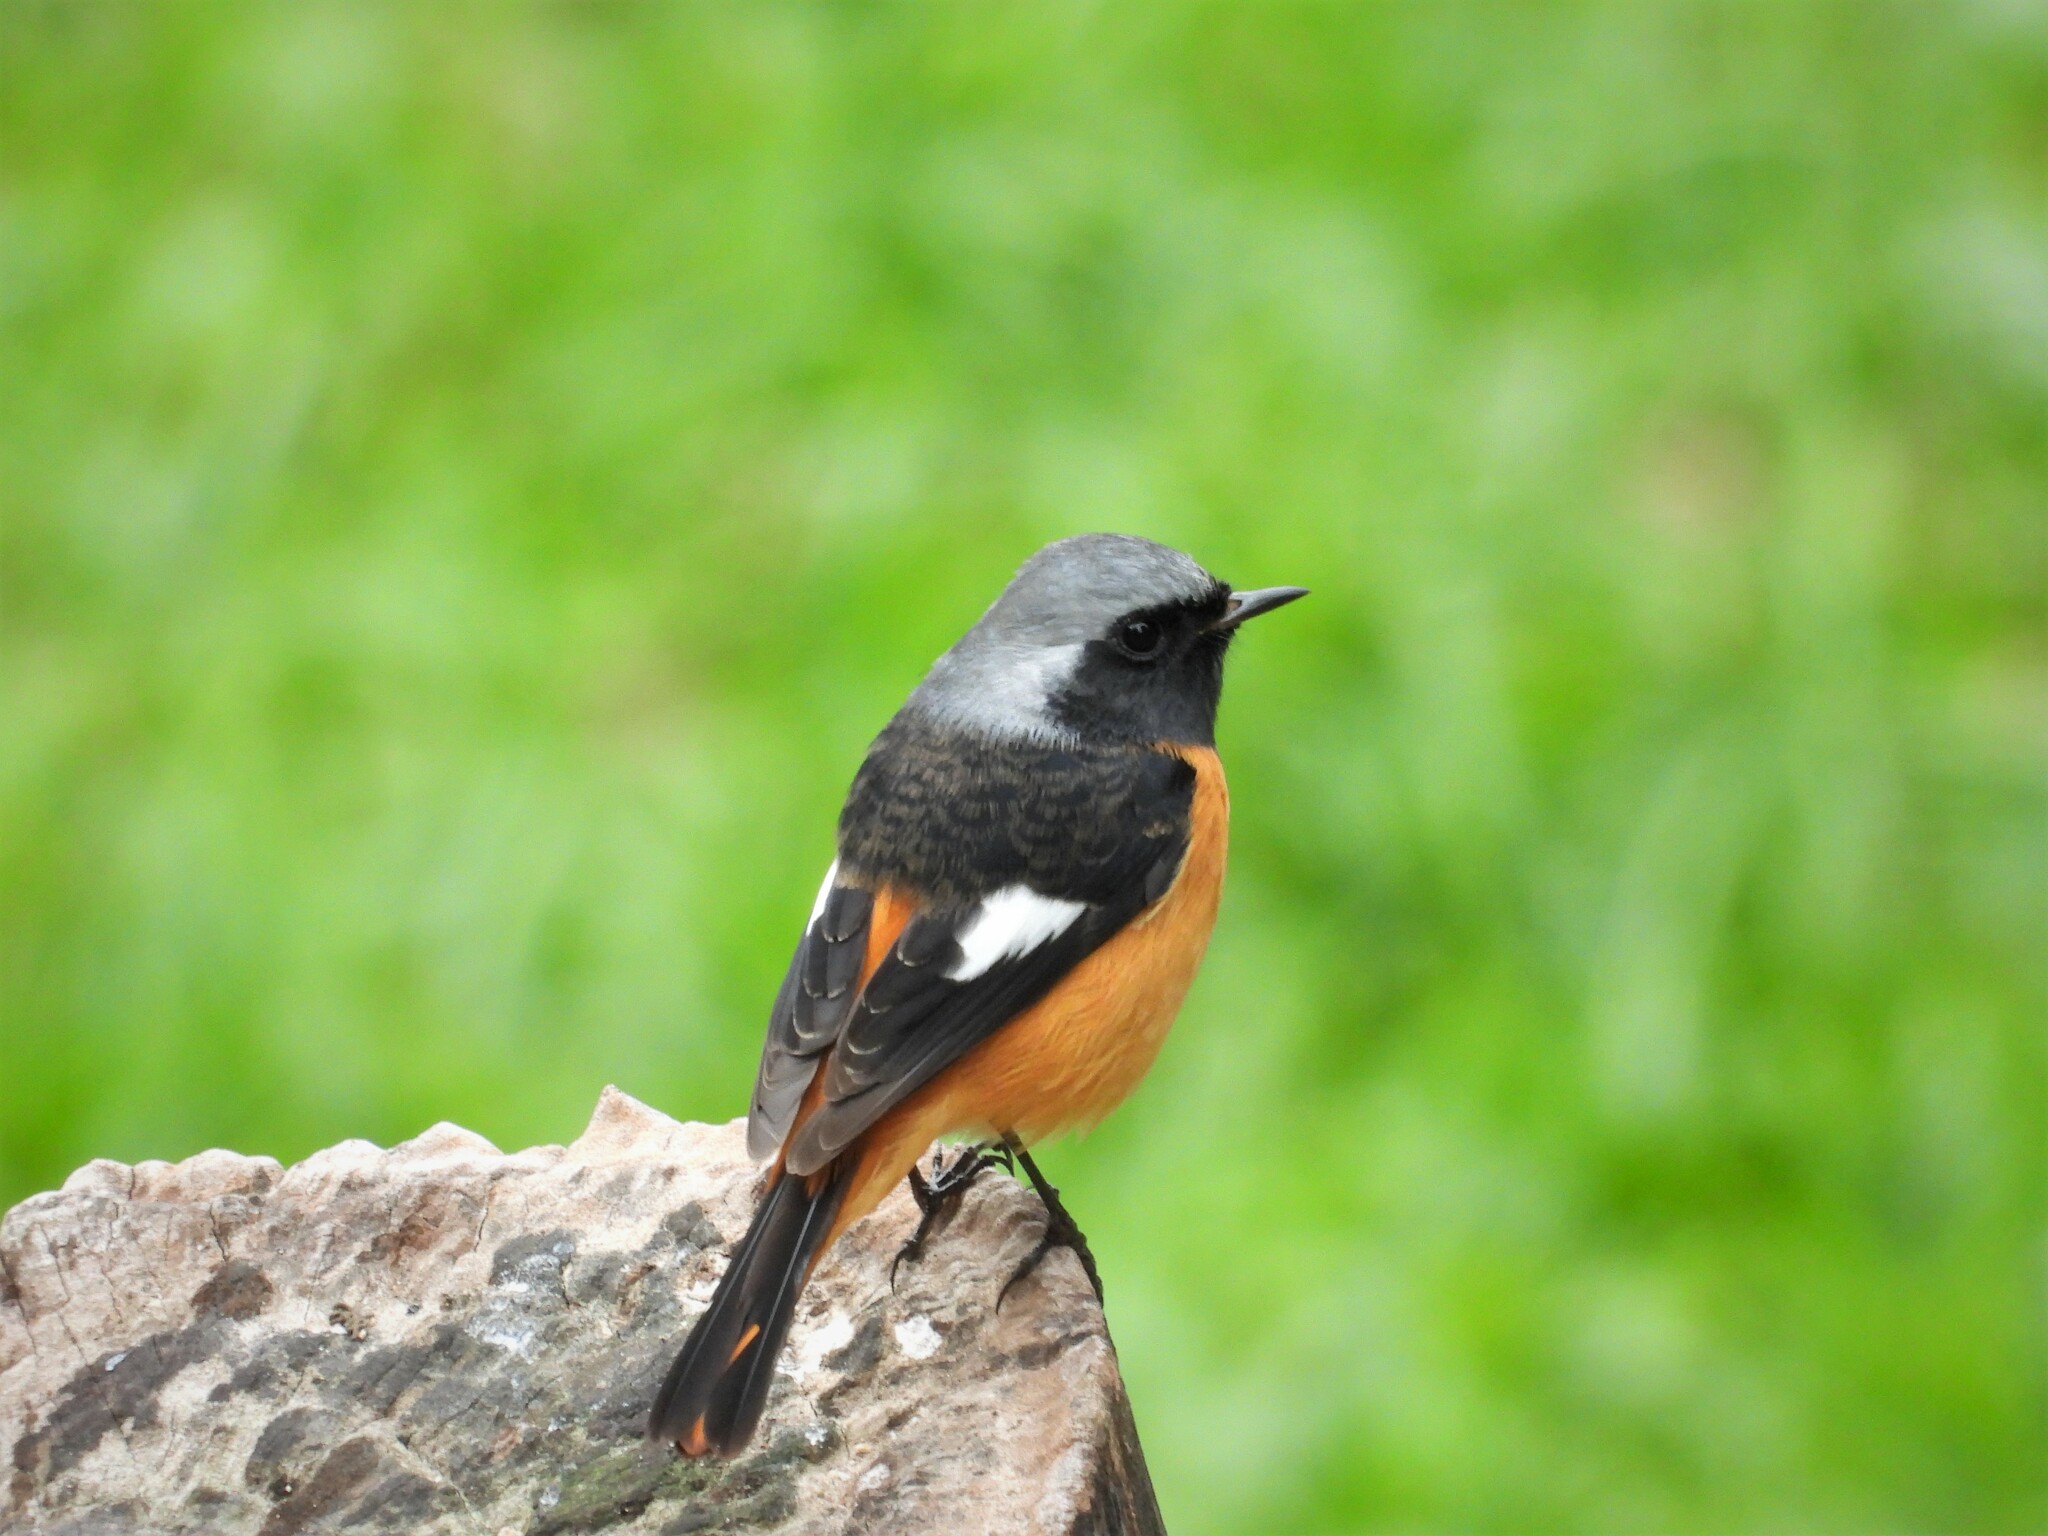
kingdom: Animalia
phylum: Chordata
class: Aves
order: Passeriformes
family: Muscicapidae
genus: Phoenicurus
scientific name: Phoenicurus auroreus
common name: Daurian redstart
